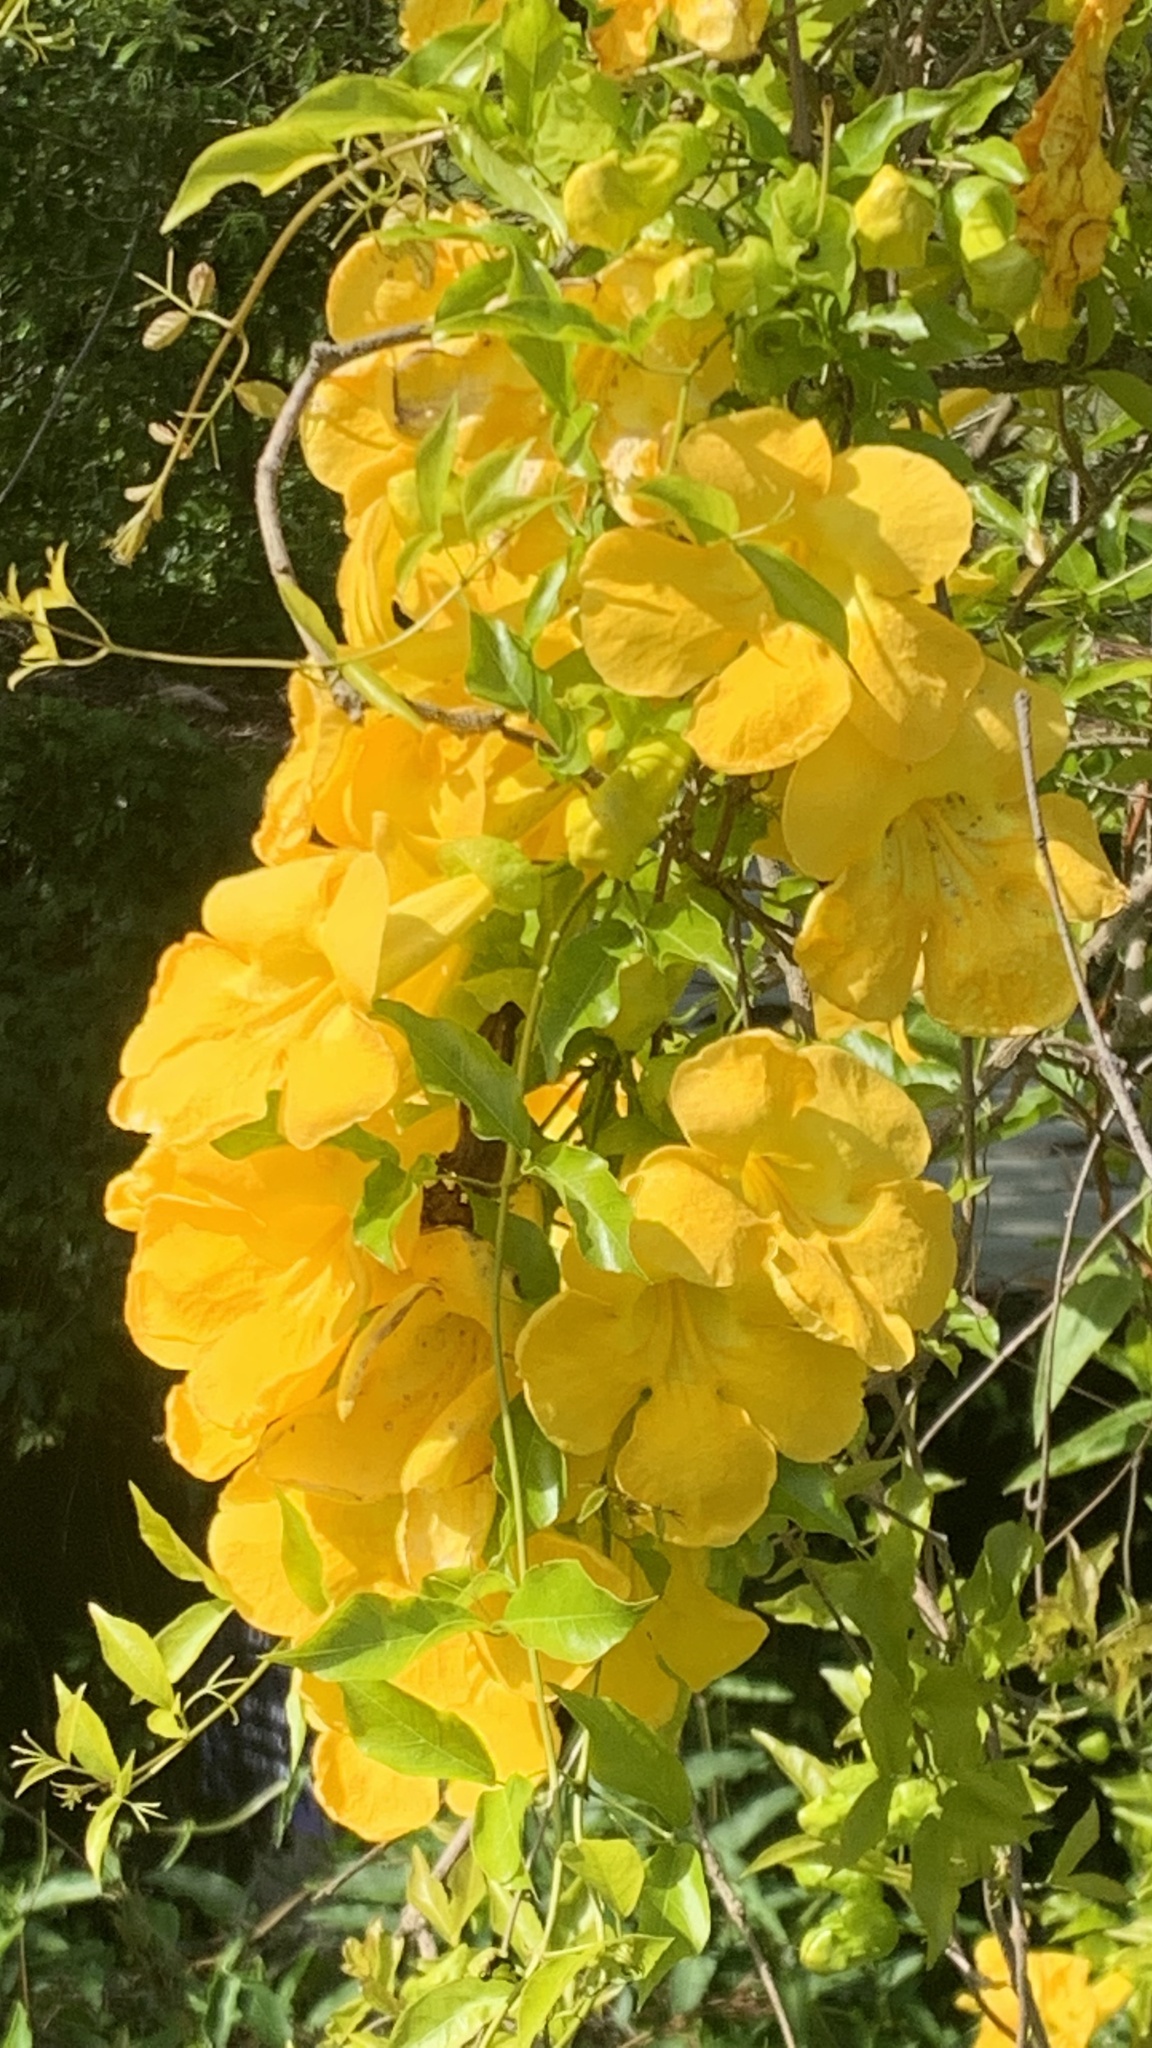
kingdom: Plantae
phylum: Tracheophyta
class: Magnoliopsida
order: Lamiales
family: Bignoniaceae
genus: Dolichandra
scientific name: Dolichandra unguis-cati
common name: Catclaw vine
